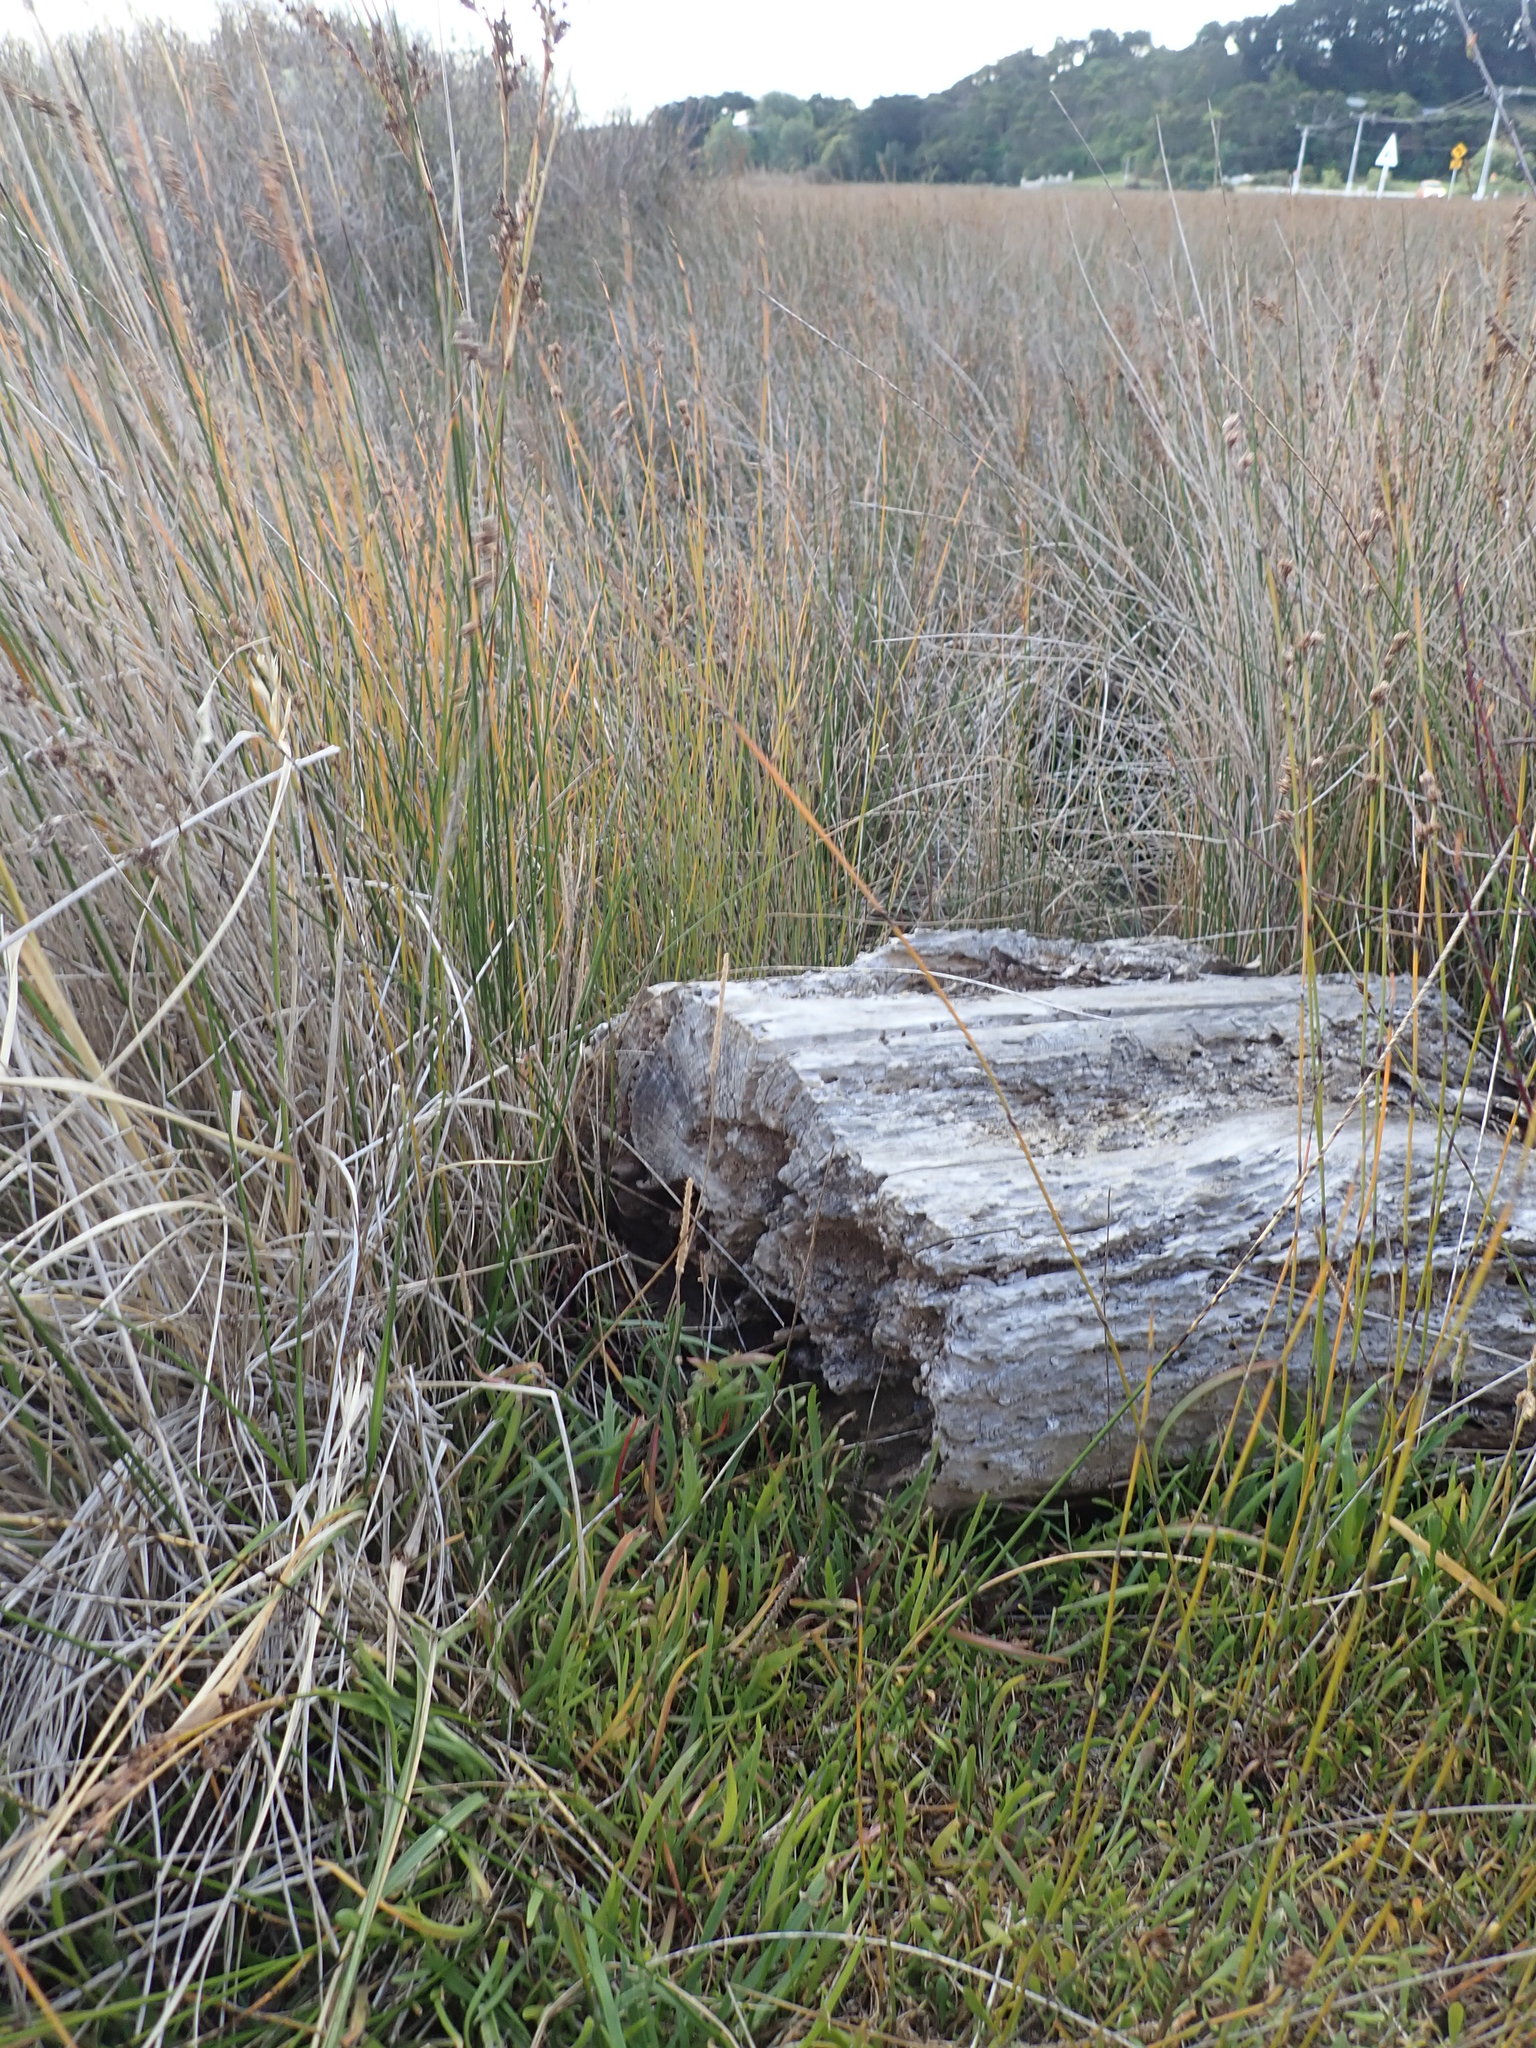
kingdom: Plantae
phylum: Tracheophyta
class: Magnoliopsida
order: Lamiales
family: Plantaginaceae
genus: Plantago
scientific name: Plantago coronopus
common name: Buck's-horn plantain
